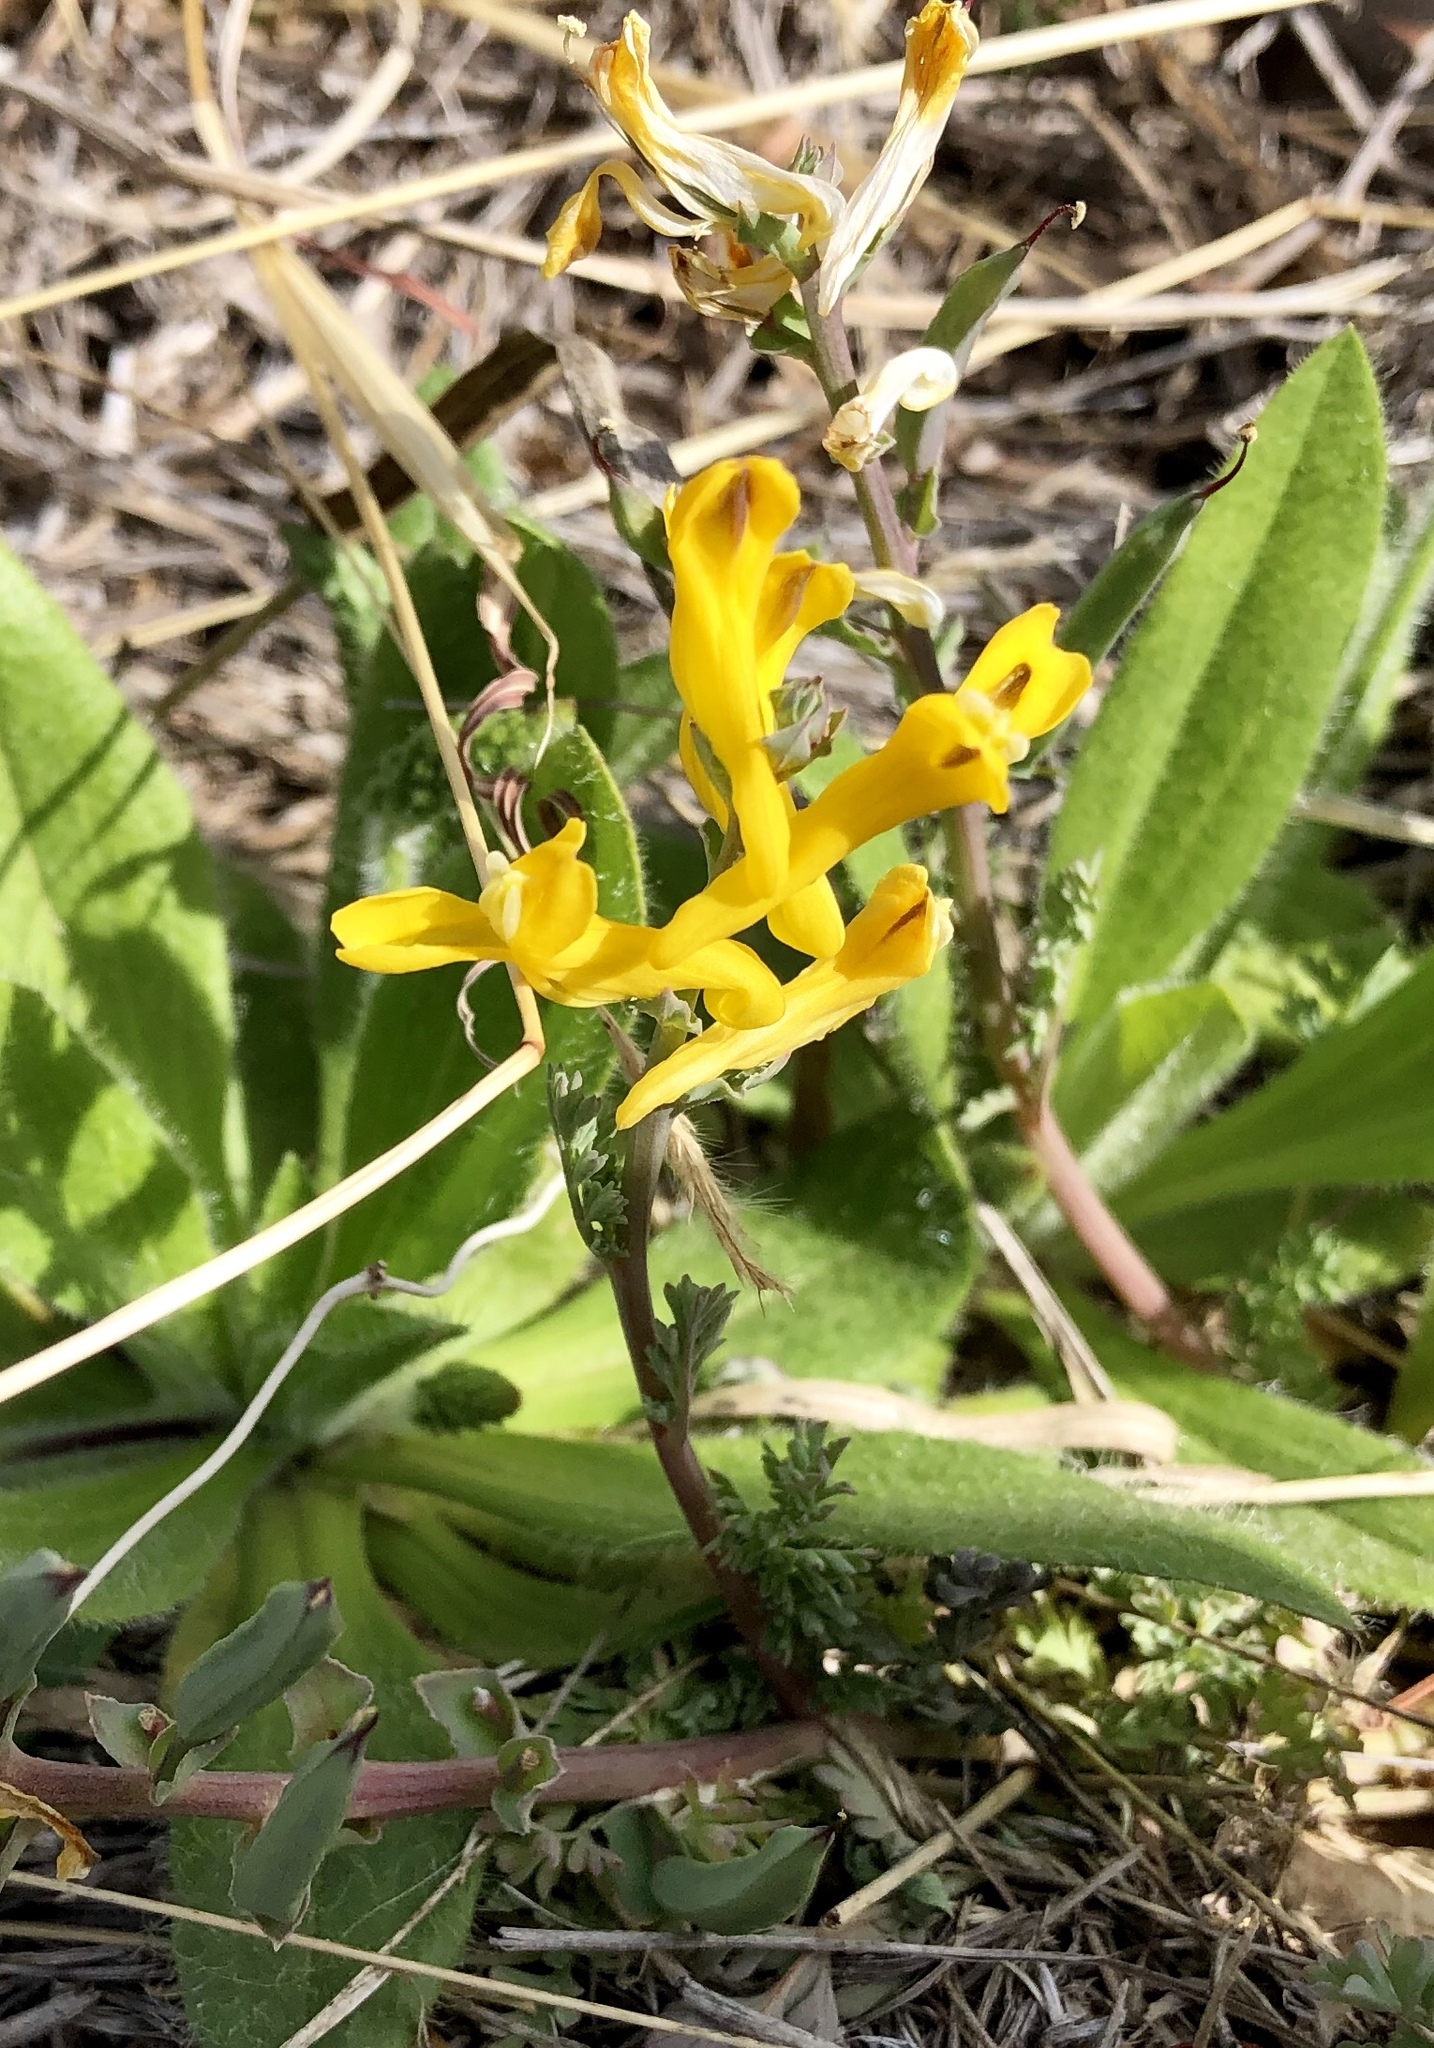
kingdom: Plantae
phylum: Tracheophyta
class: Magnoliopsida
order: Ranunculales
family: Papaveraceae
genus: Corydalis
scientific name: Corydalis aurea
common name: Golden corydalis
